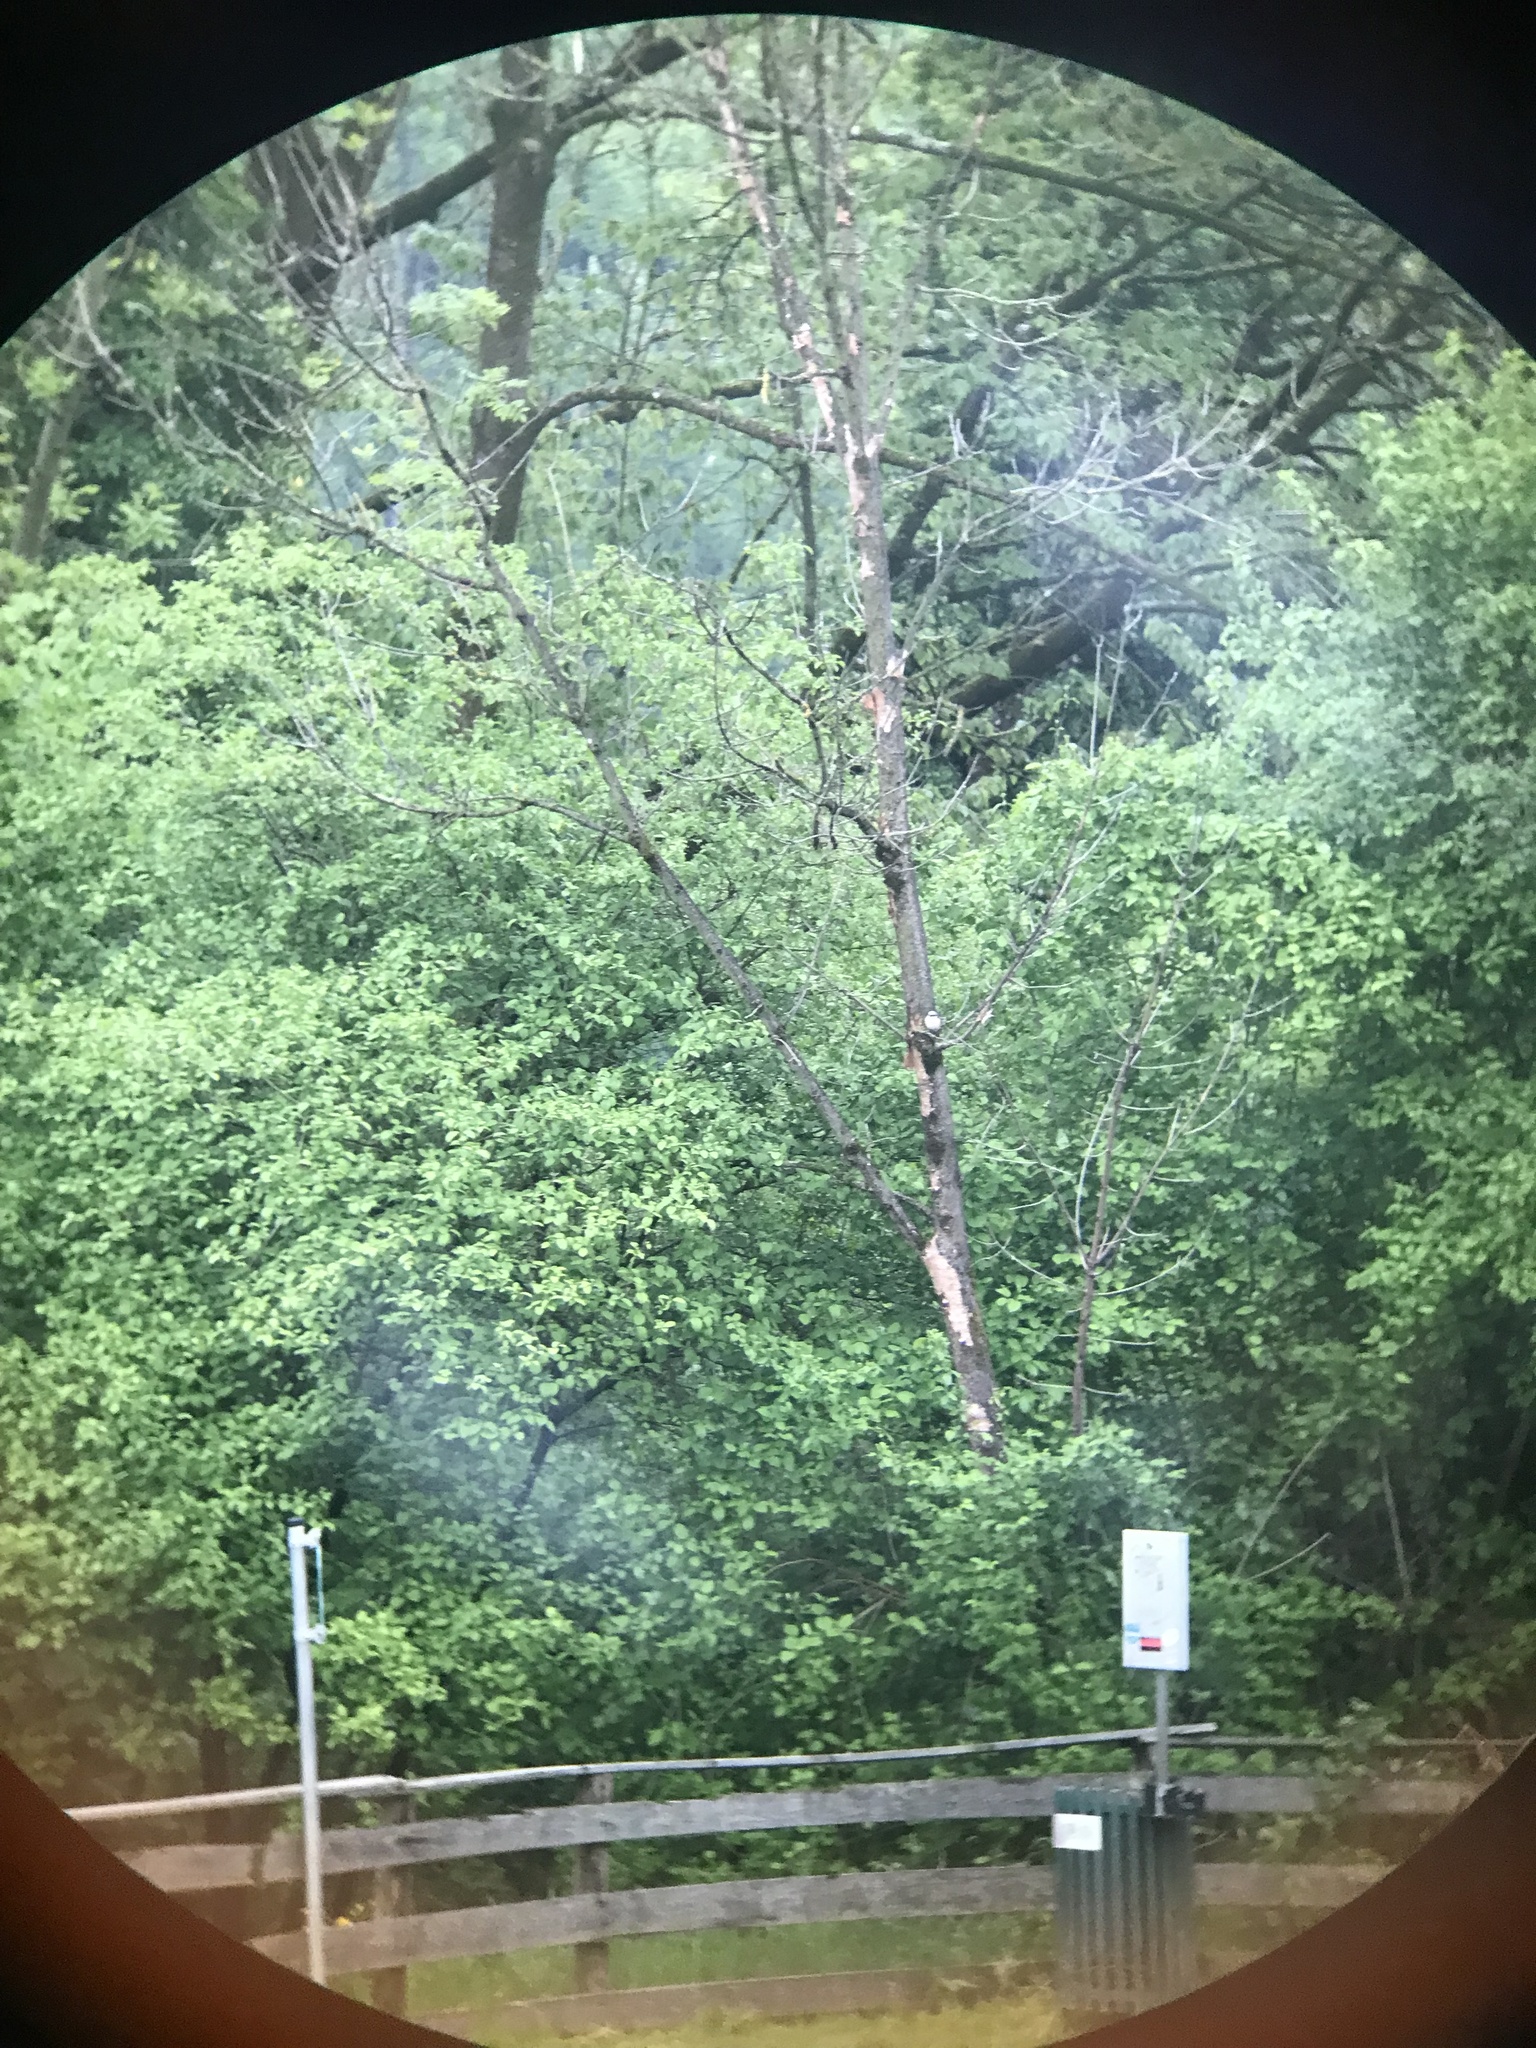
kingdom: Animalia
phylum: Chordata
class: Aves
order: Passeriformes
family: Laniidae
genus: Lanius
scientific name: Lanius collurio
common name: Red-backed shrike
